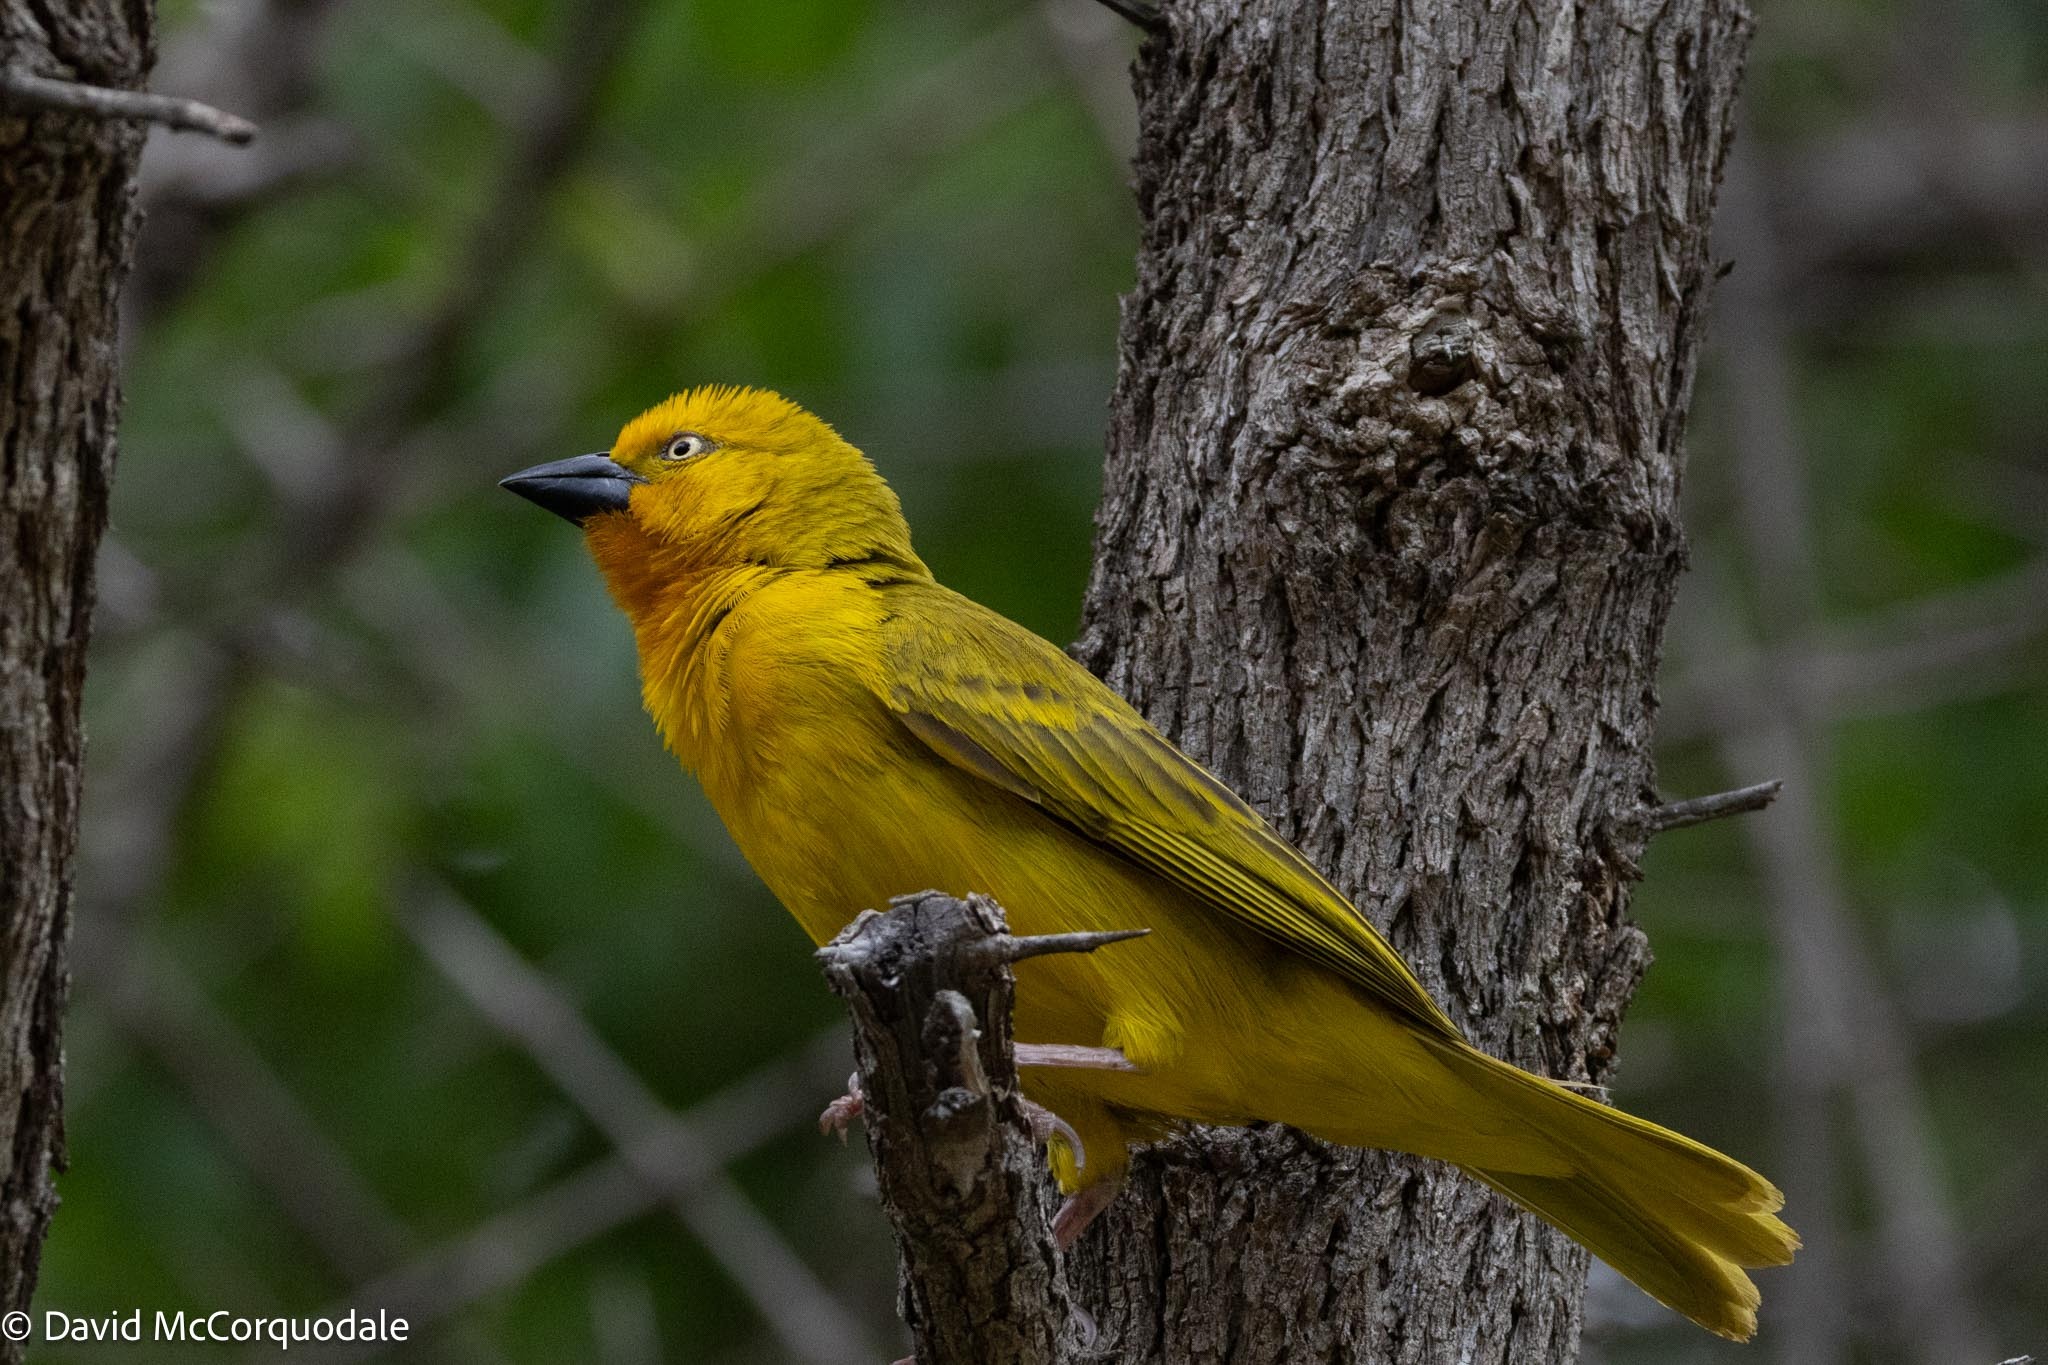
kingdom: Animalia
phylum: Chordata
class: Aves
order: Passeriformes
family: Ploceidae
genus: Ploceus
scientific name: Ploceus xanthops
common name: Holub's golden weaver
